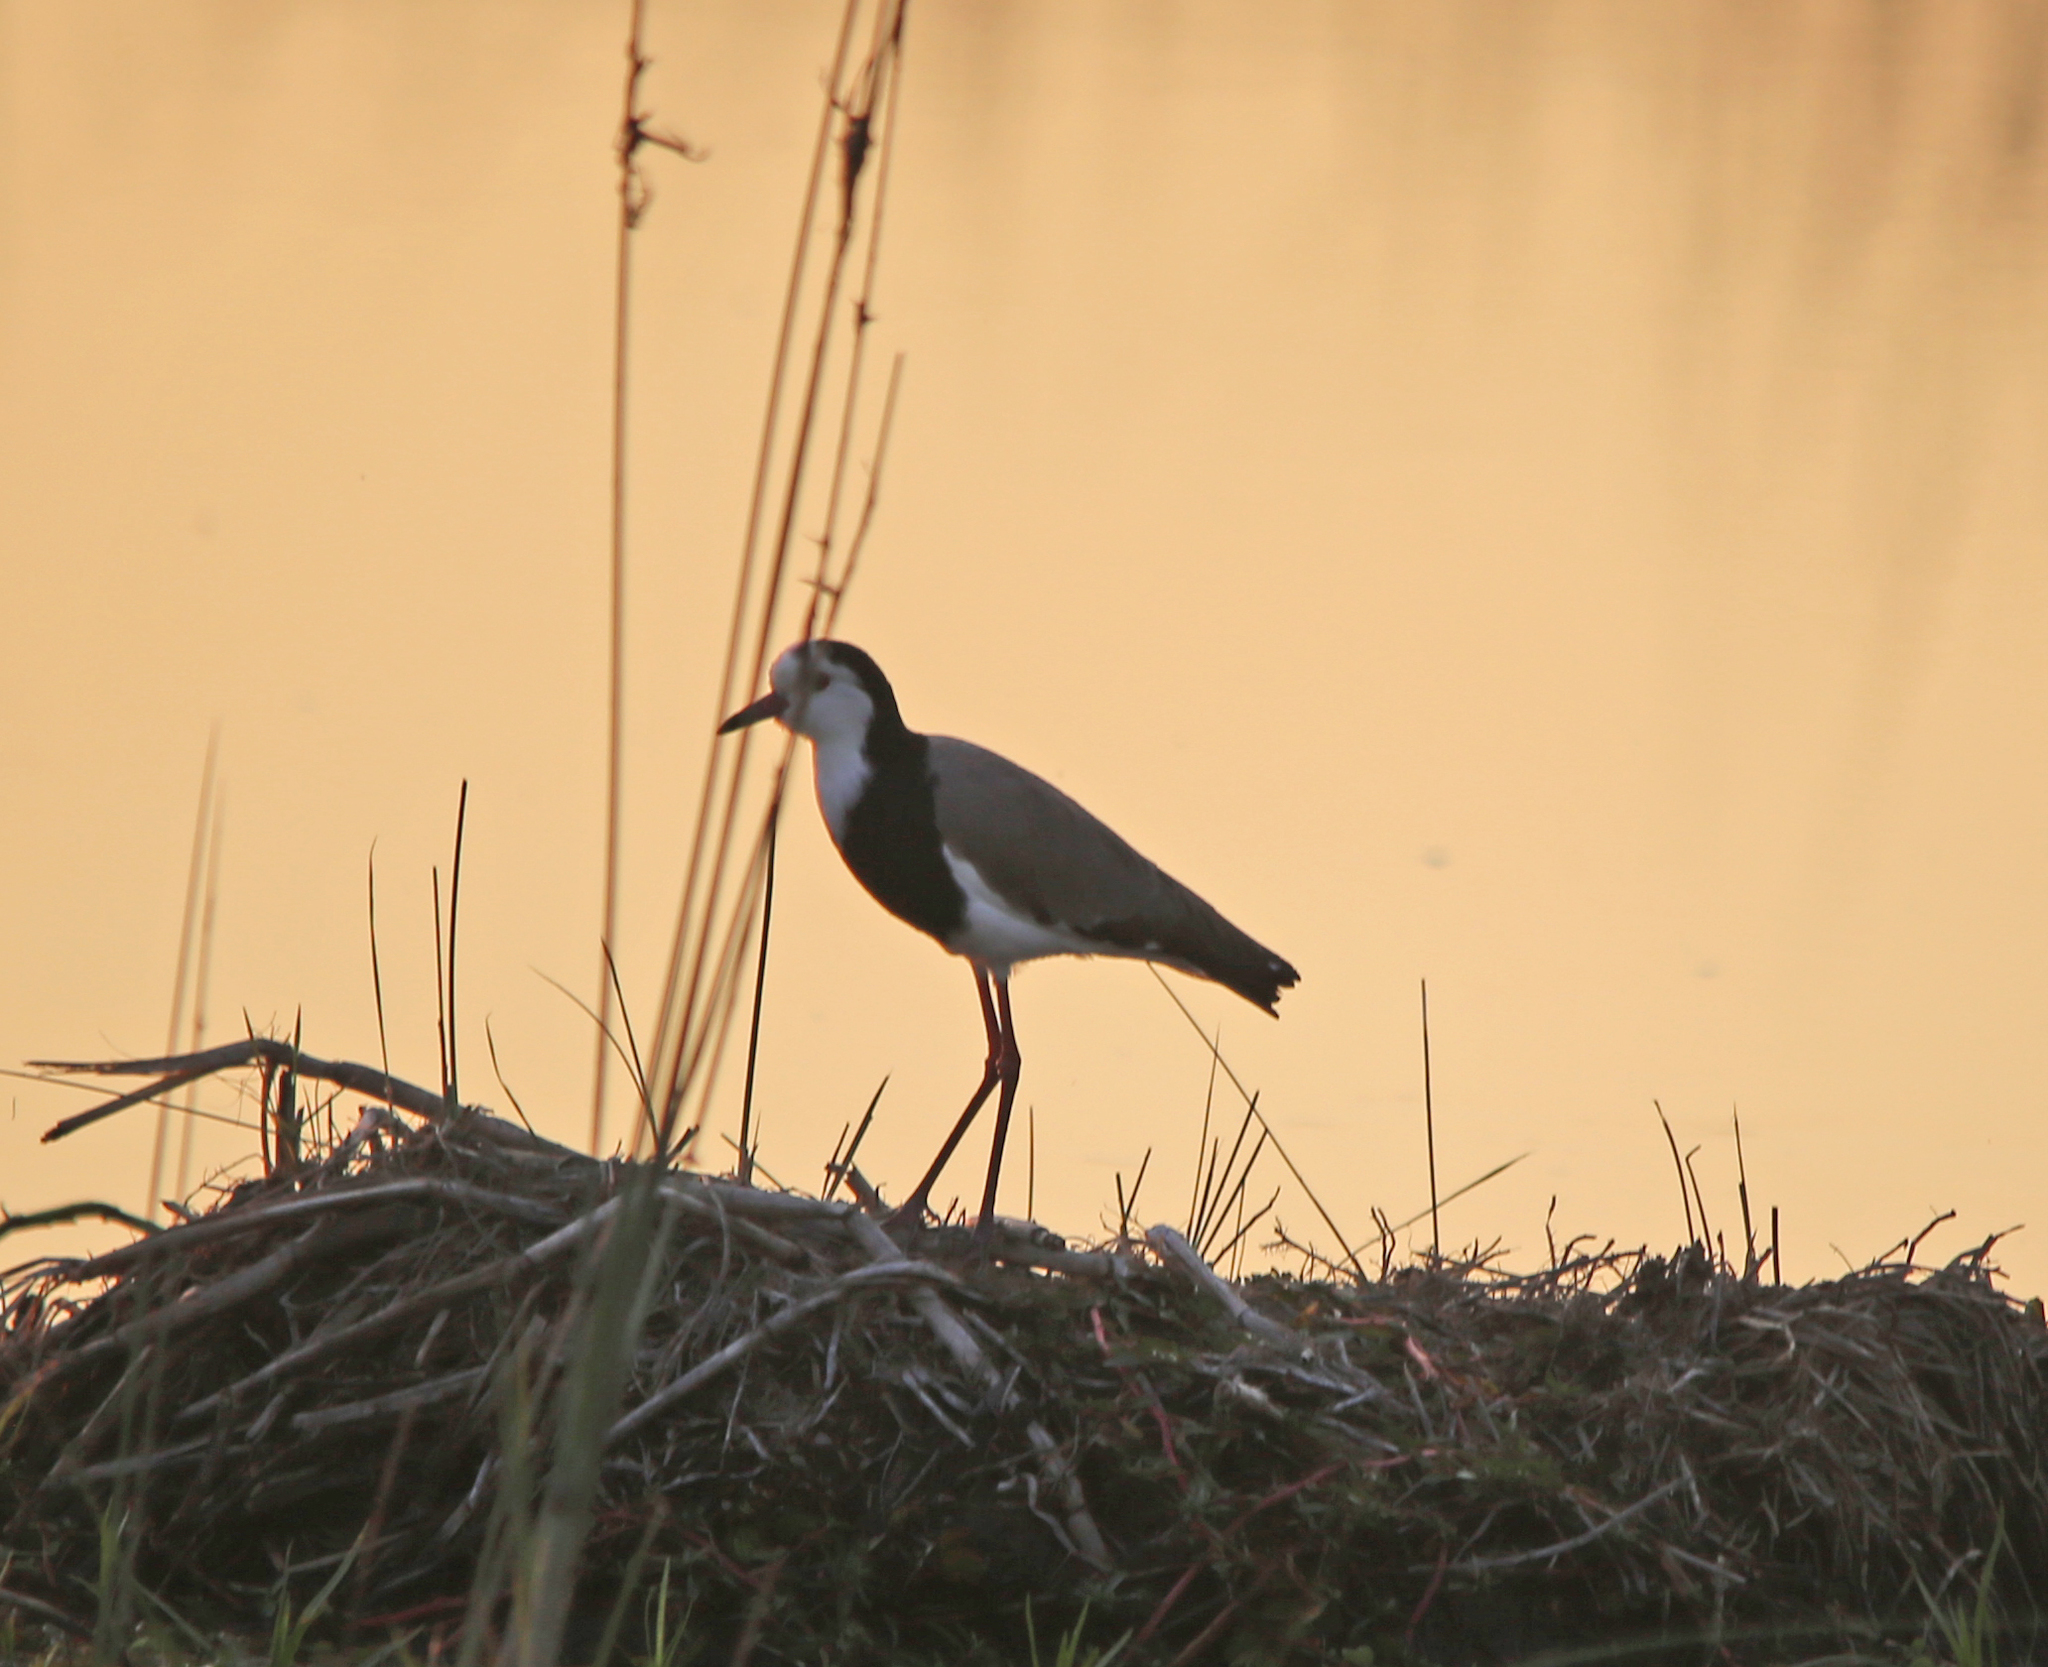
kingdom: Animalia
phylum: Chordata
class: Aves
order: Charadriiformes
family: Charadriidae
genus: Vanellus
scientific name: Vanellus crassirostris
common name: Long-toed lapwing
